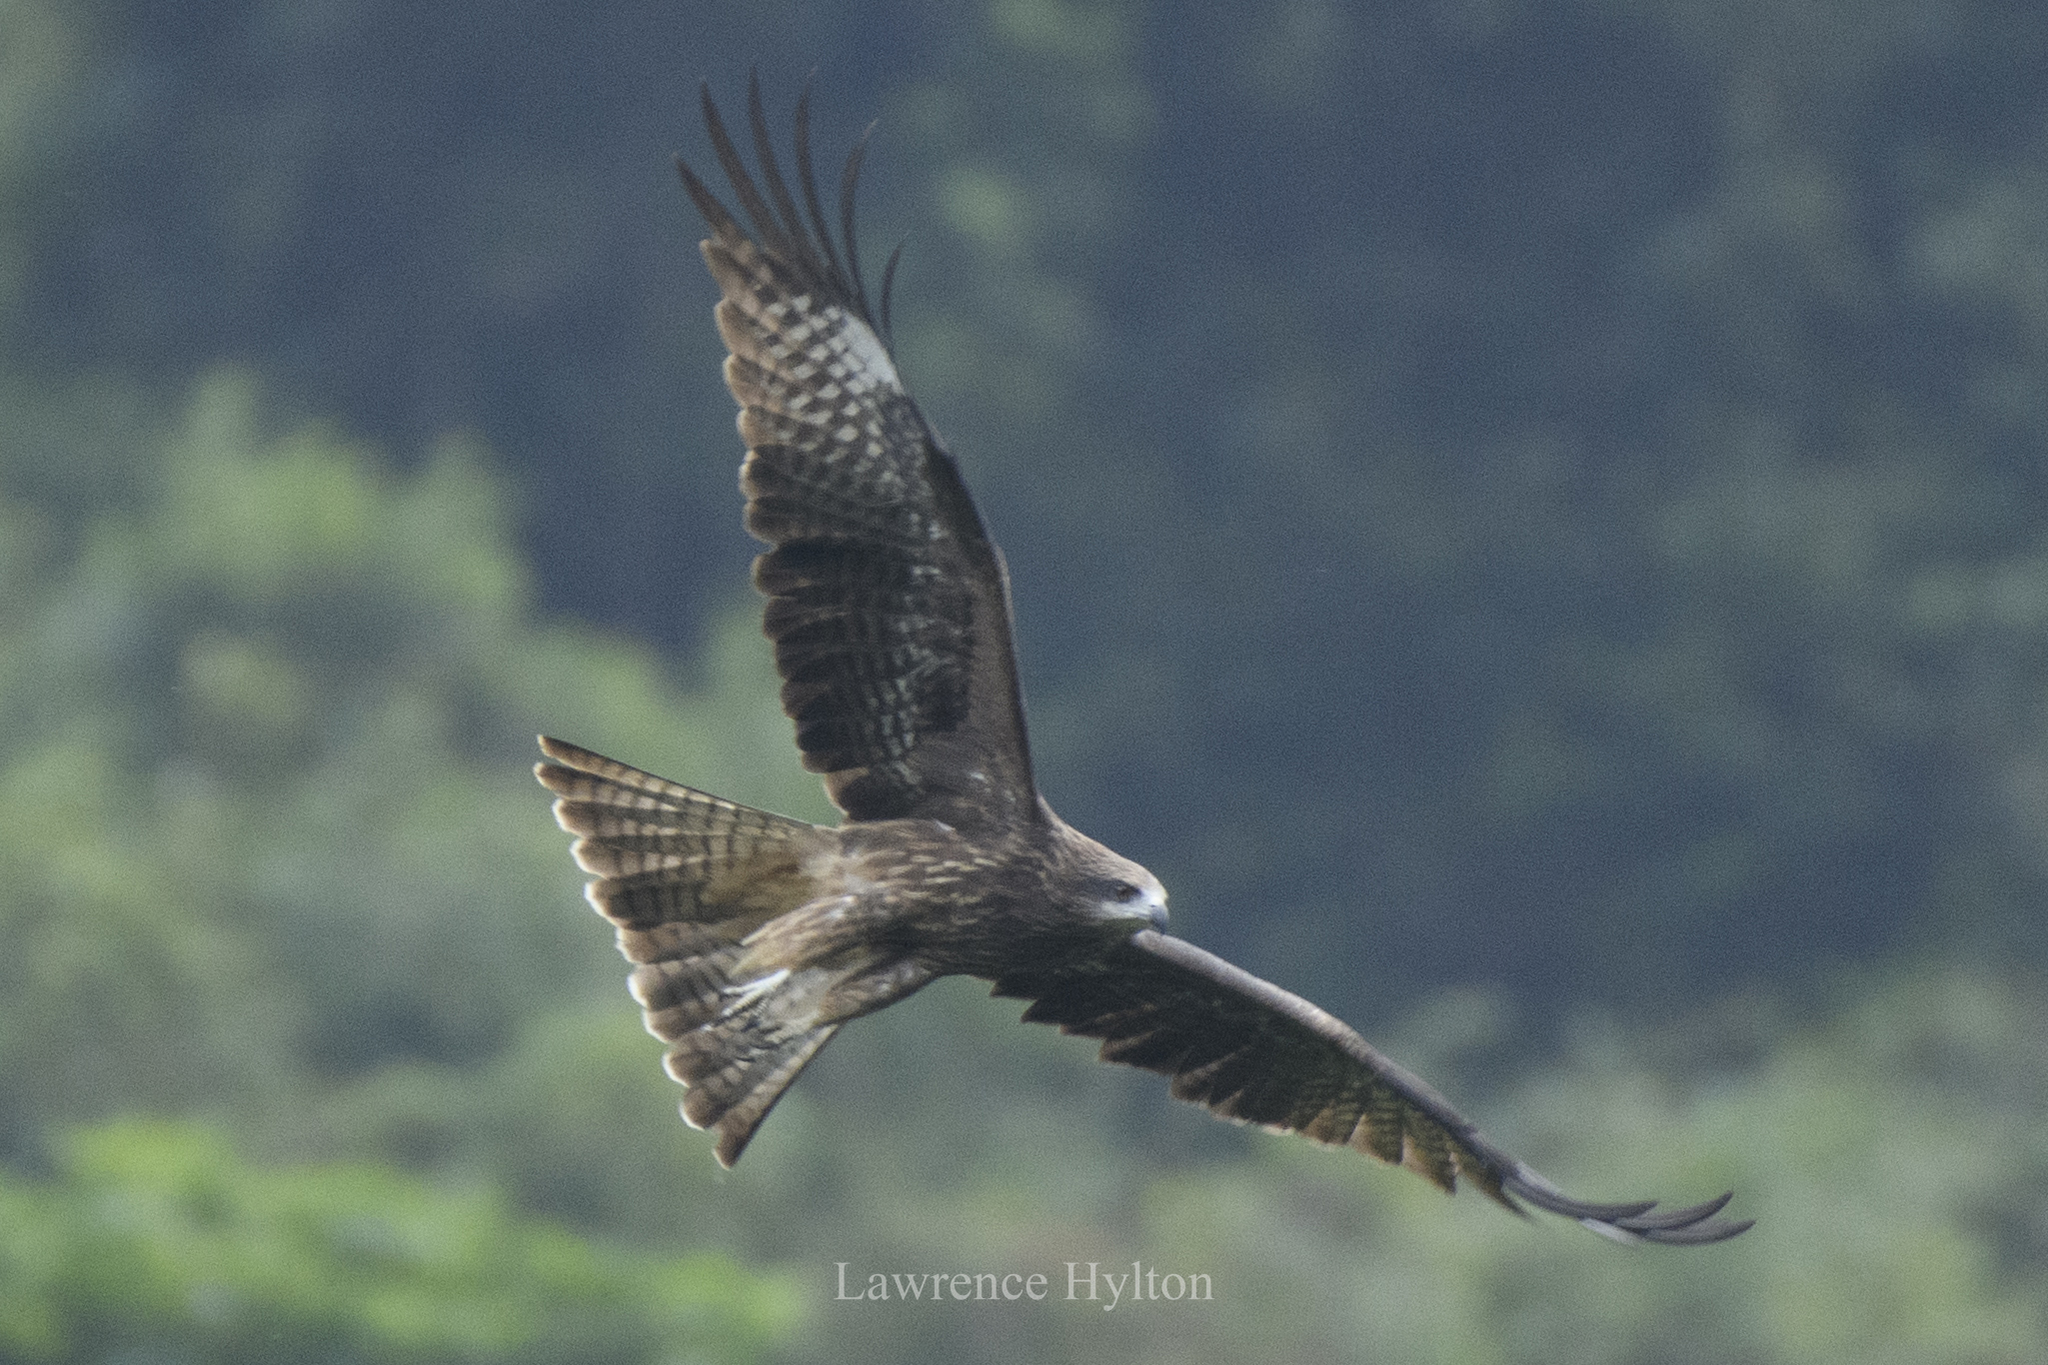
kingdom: Animalia
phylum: Chordata
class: Aves
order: Accipitriformes
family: Accipitridae
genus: Milvus
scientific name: Milvus migrans
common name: Black kite
